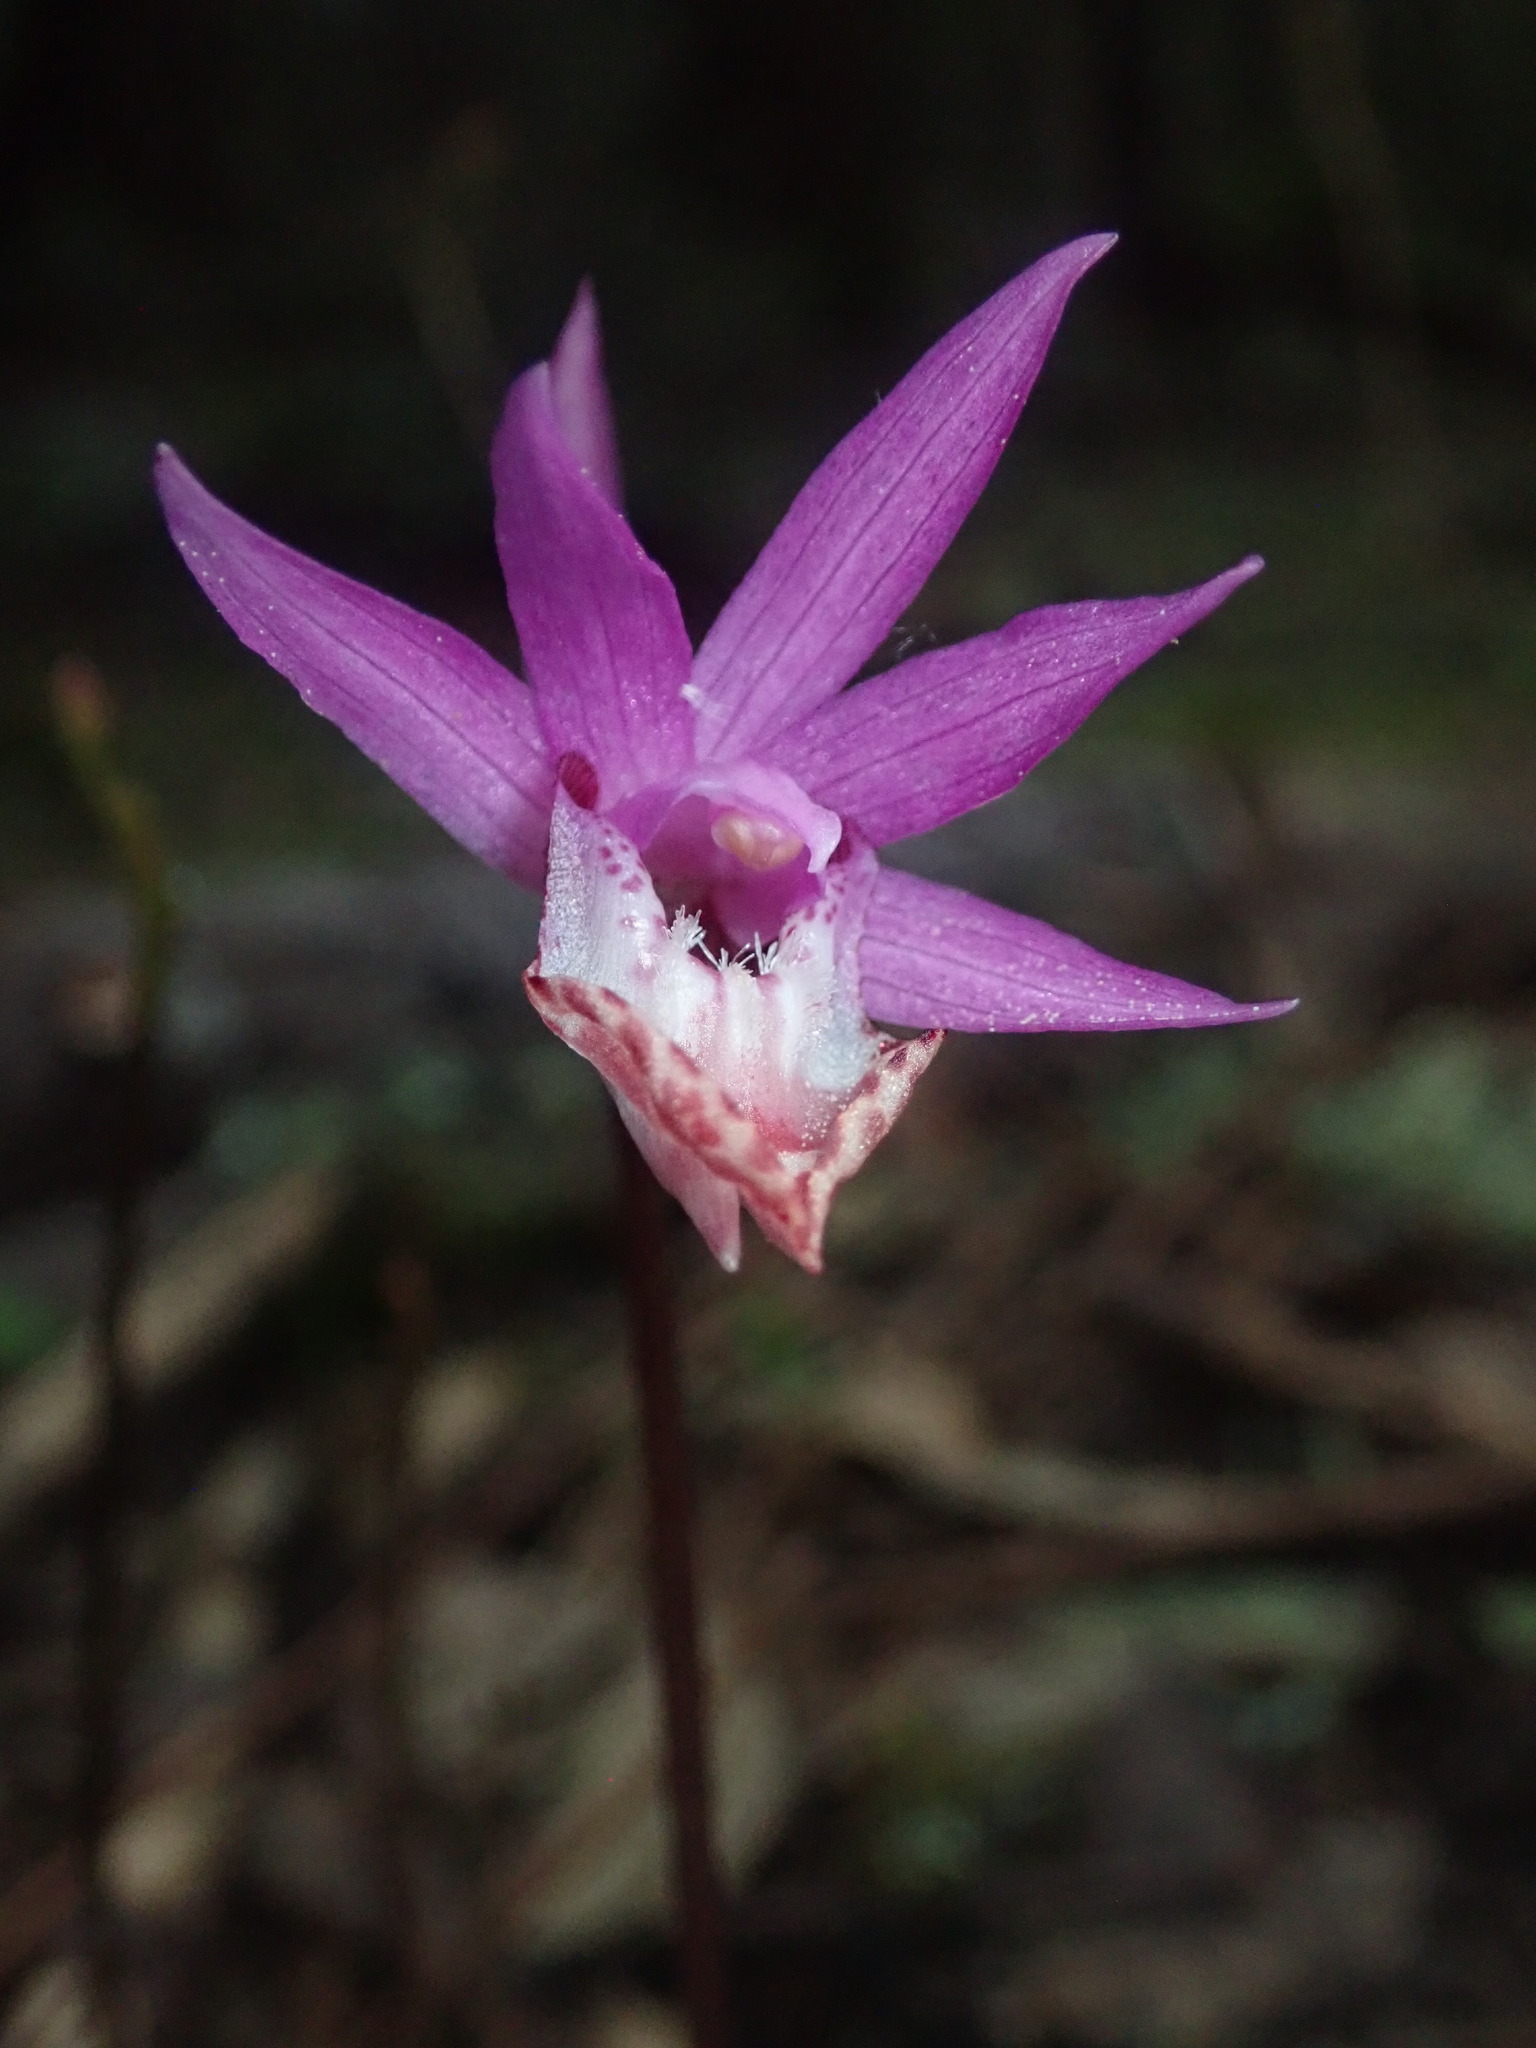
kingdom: Plantae
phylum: Tracheophyta
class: Liliopsida
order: Asparagales
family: Orchidaceae
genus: Calypso
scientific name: Calypso bulbosa
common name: Calypso
